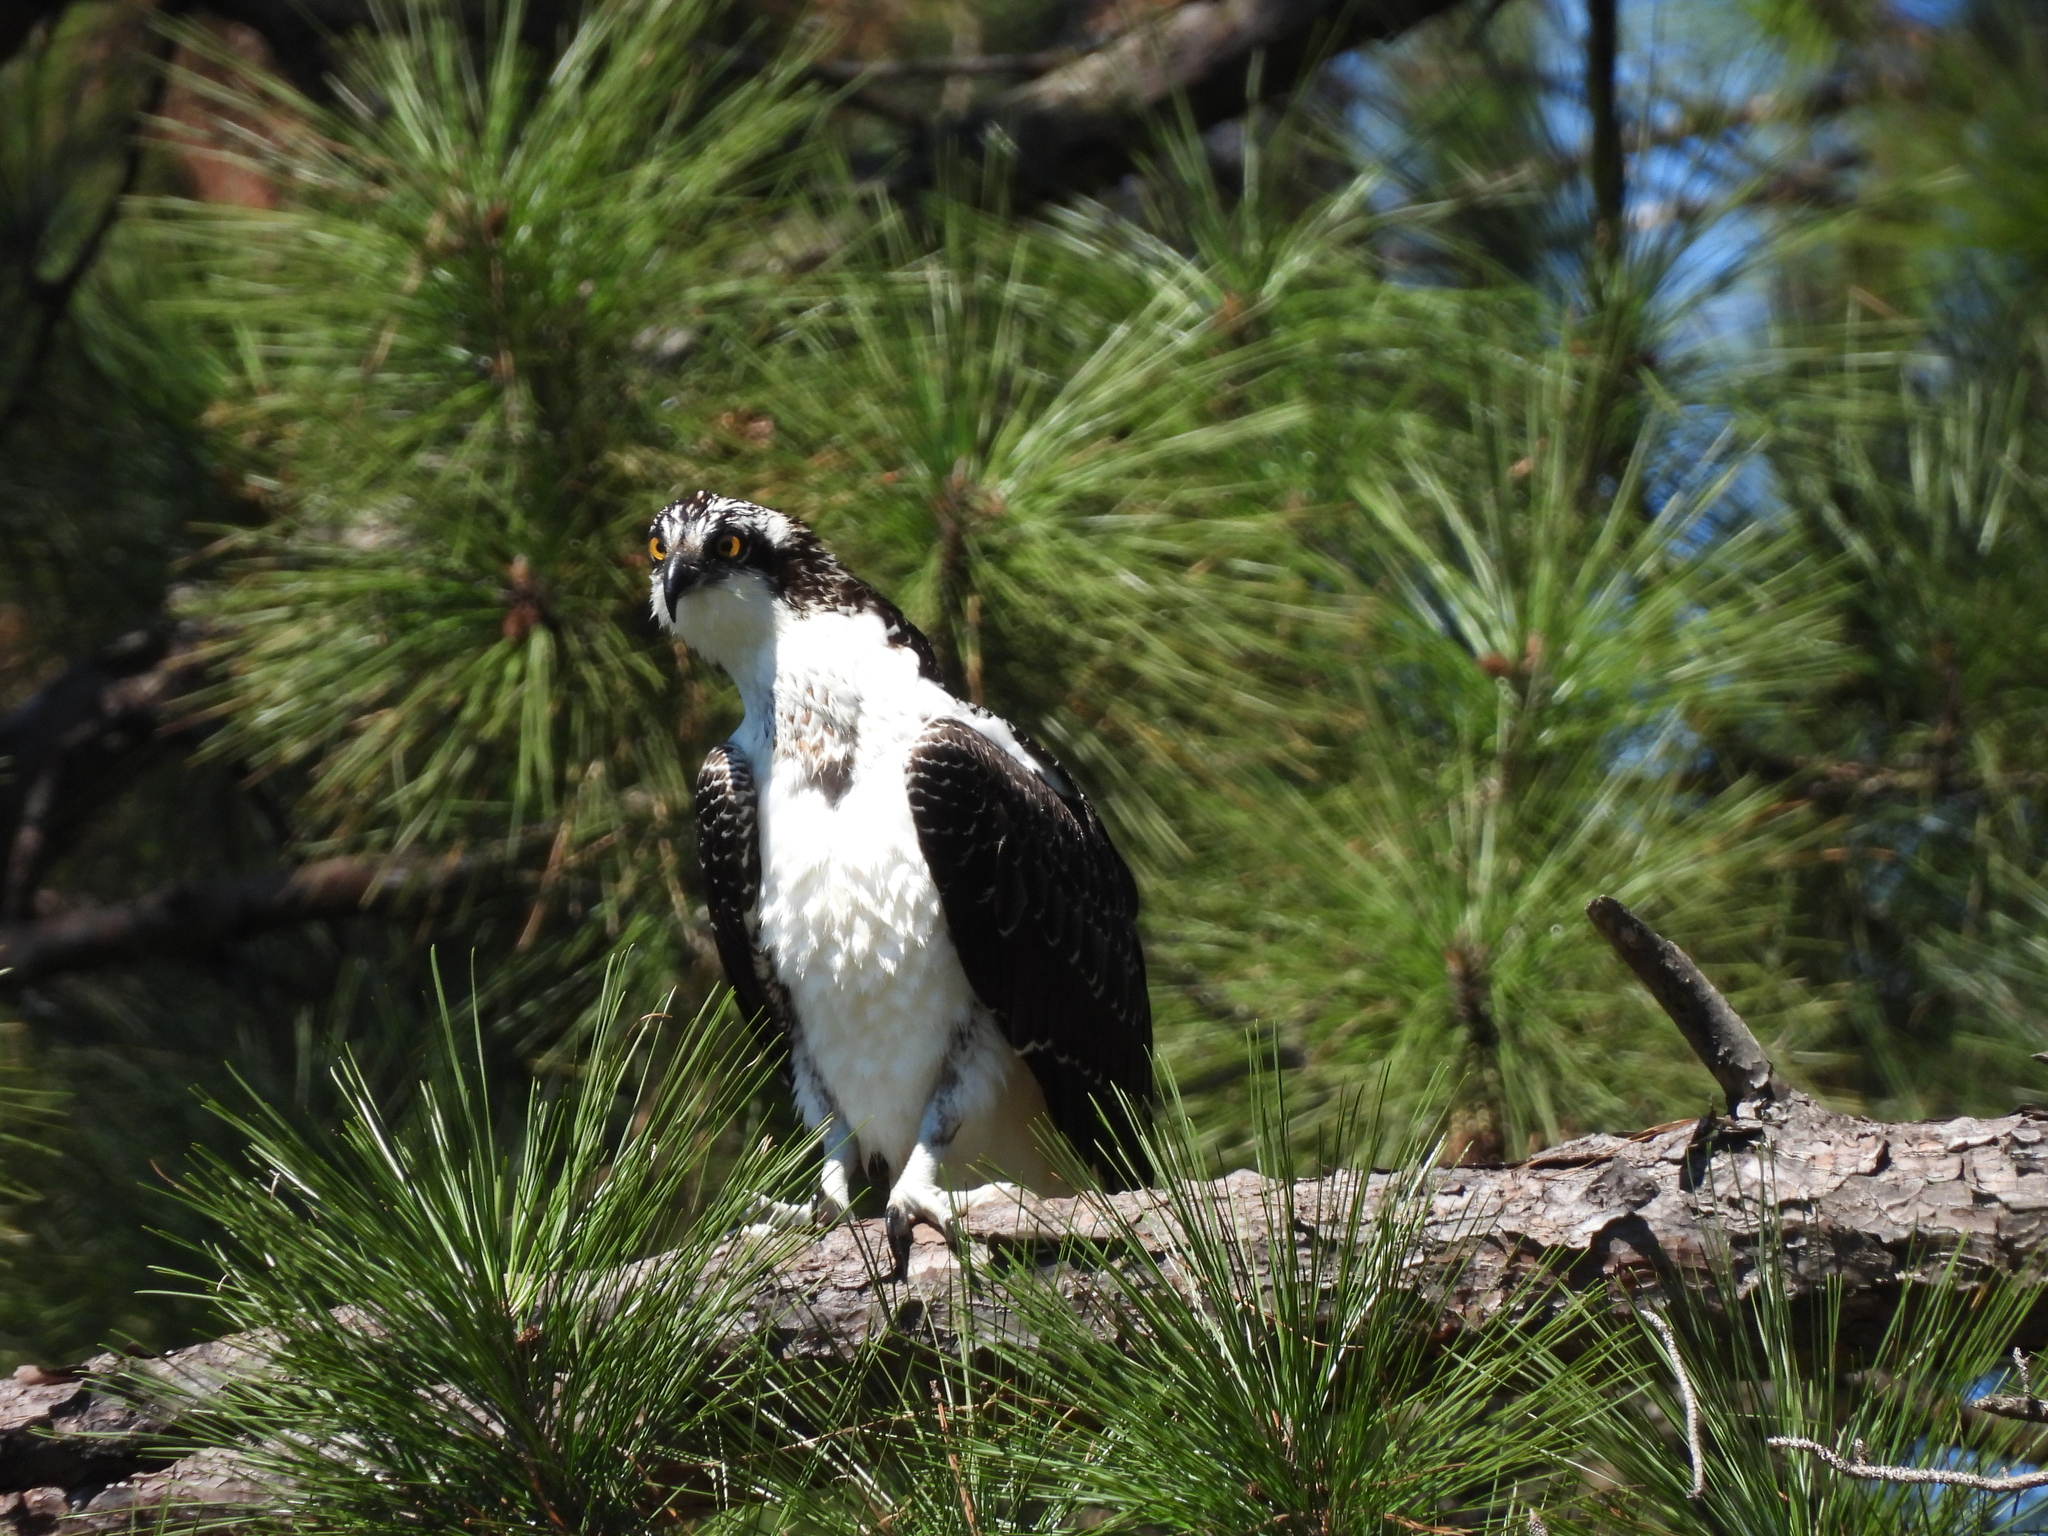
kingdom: Animalia
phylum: Chordata
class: Aves
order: Accipitriformes
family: Pandionidae
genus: Pandion
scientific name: Pandion haliaetus
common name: Osprey
